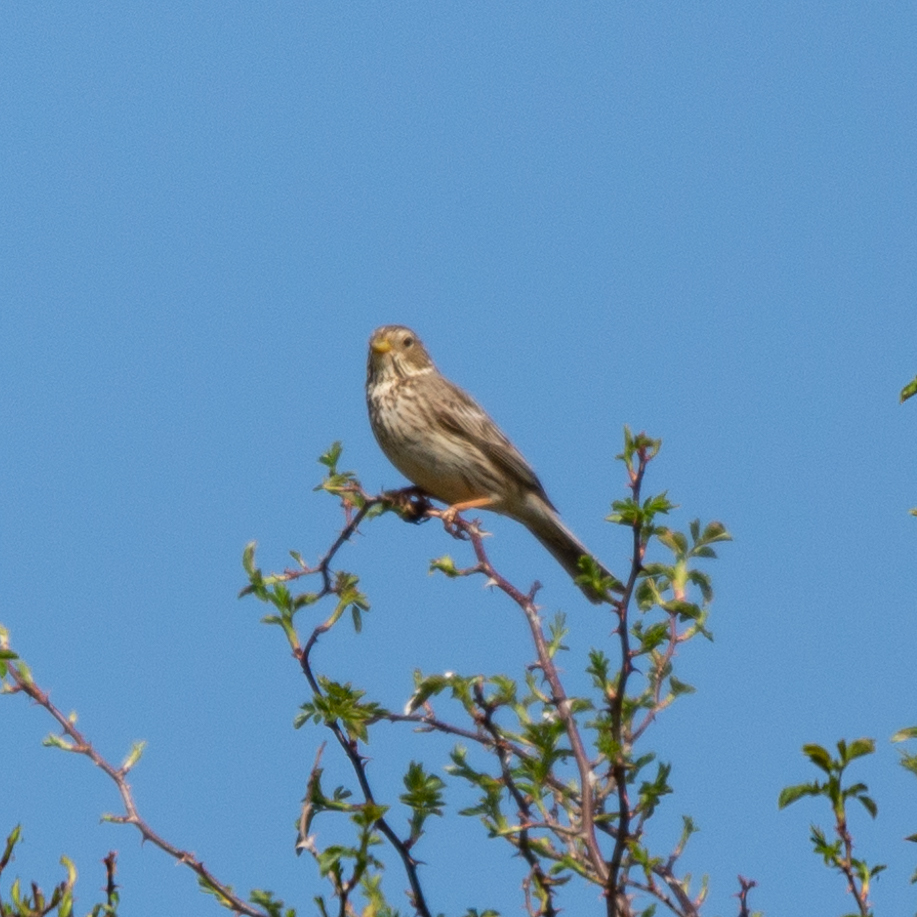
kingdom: Animalia
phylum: Chordata
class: Aves
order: Passeriformes
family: Emberizidae
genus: Emberiza
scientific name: Emberiza calandra
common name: Corn bunting
